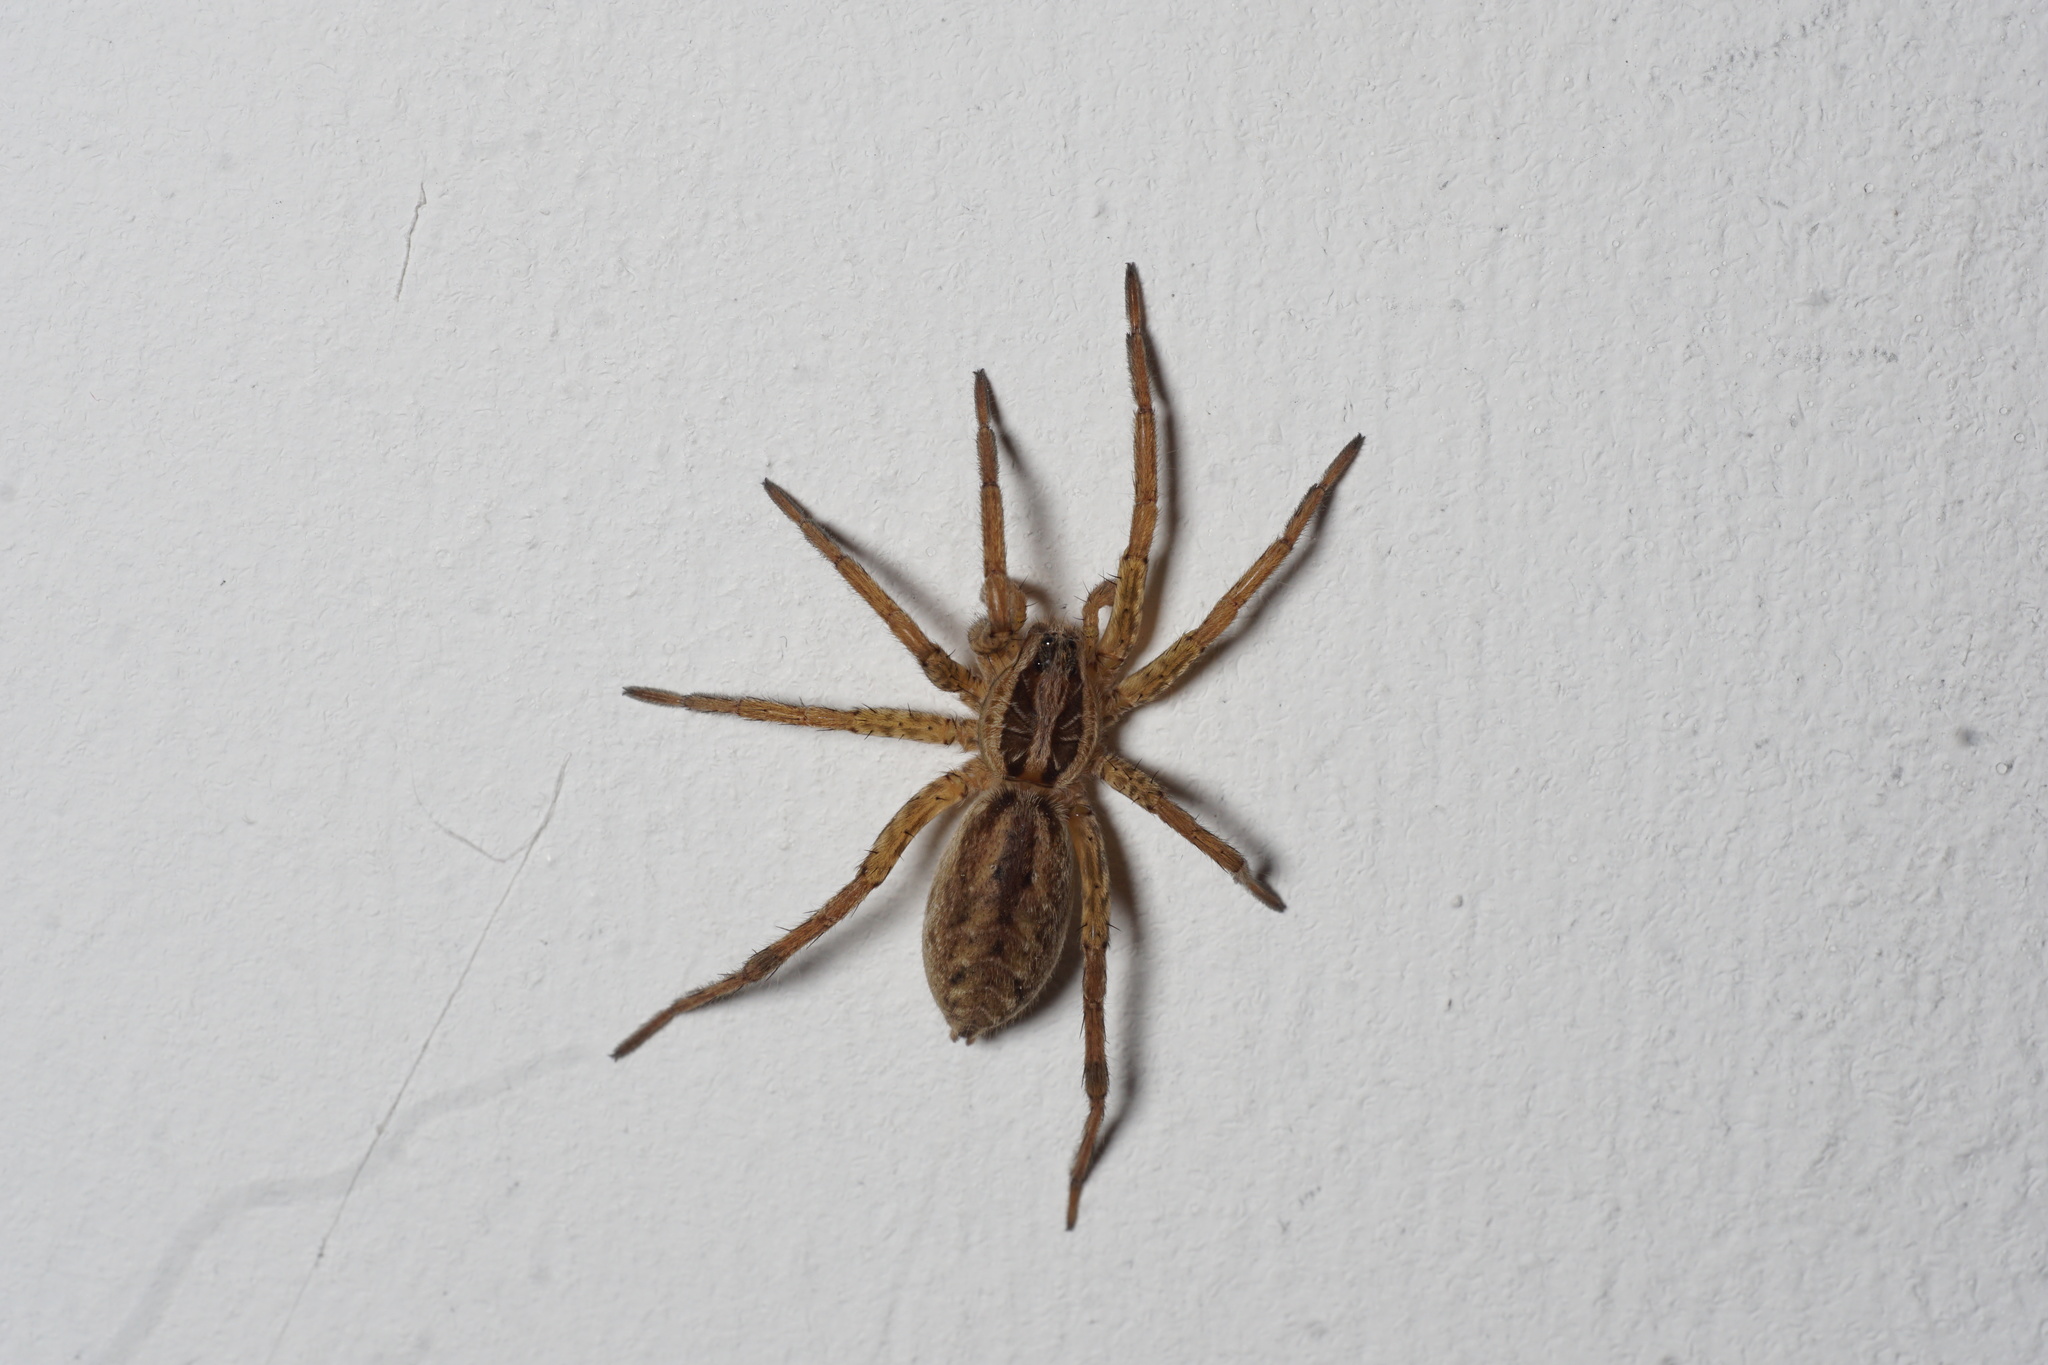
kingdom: Animalia
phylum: Arthropoda
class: Arachnida
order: Araneae
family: Lycosidae
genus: Hogna
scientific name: Hogna radiata
